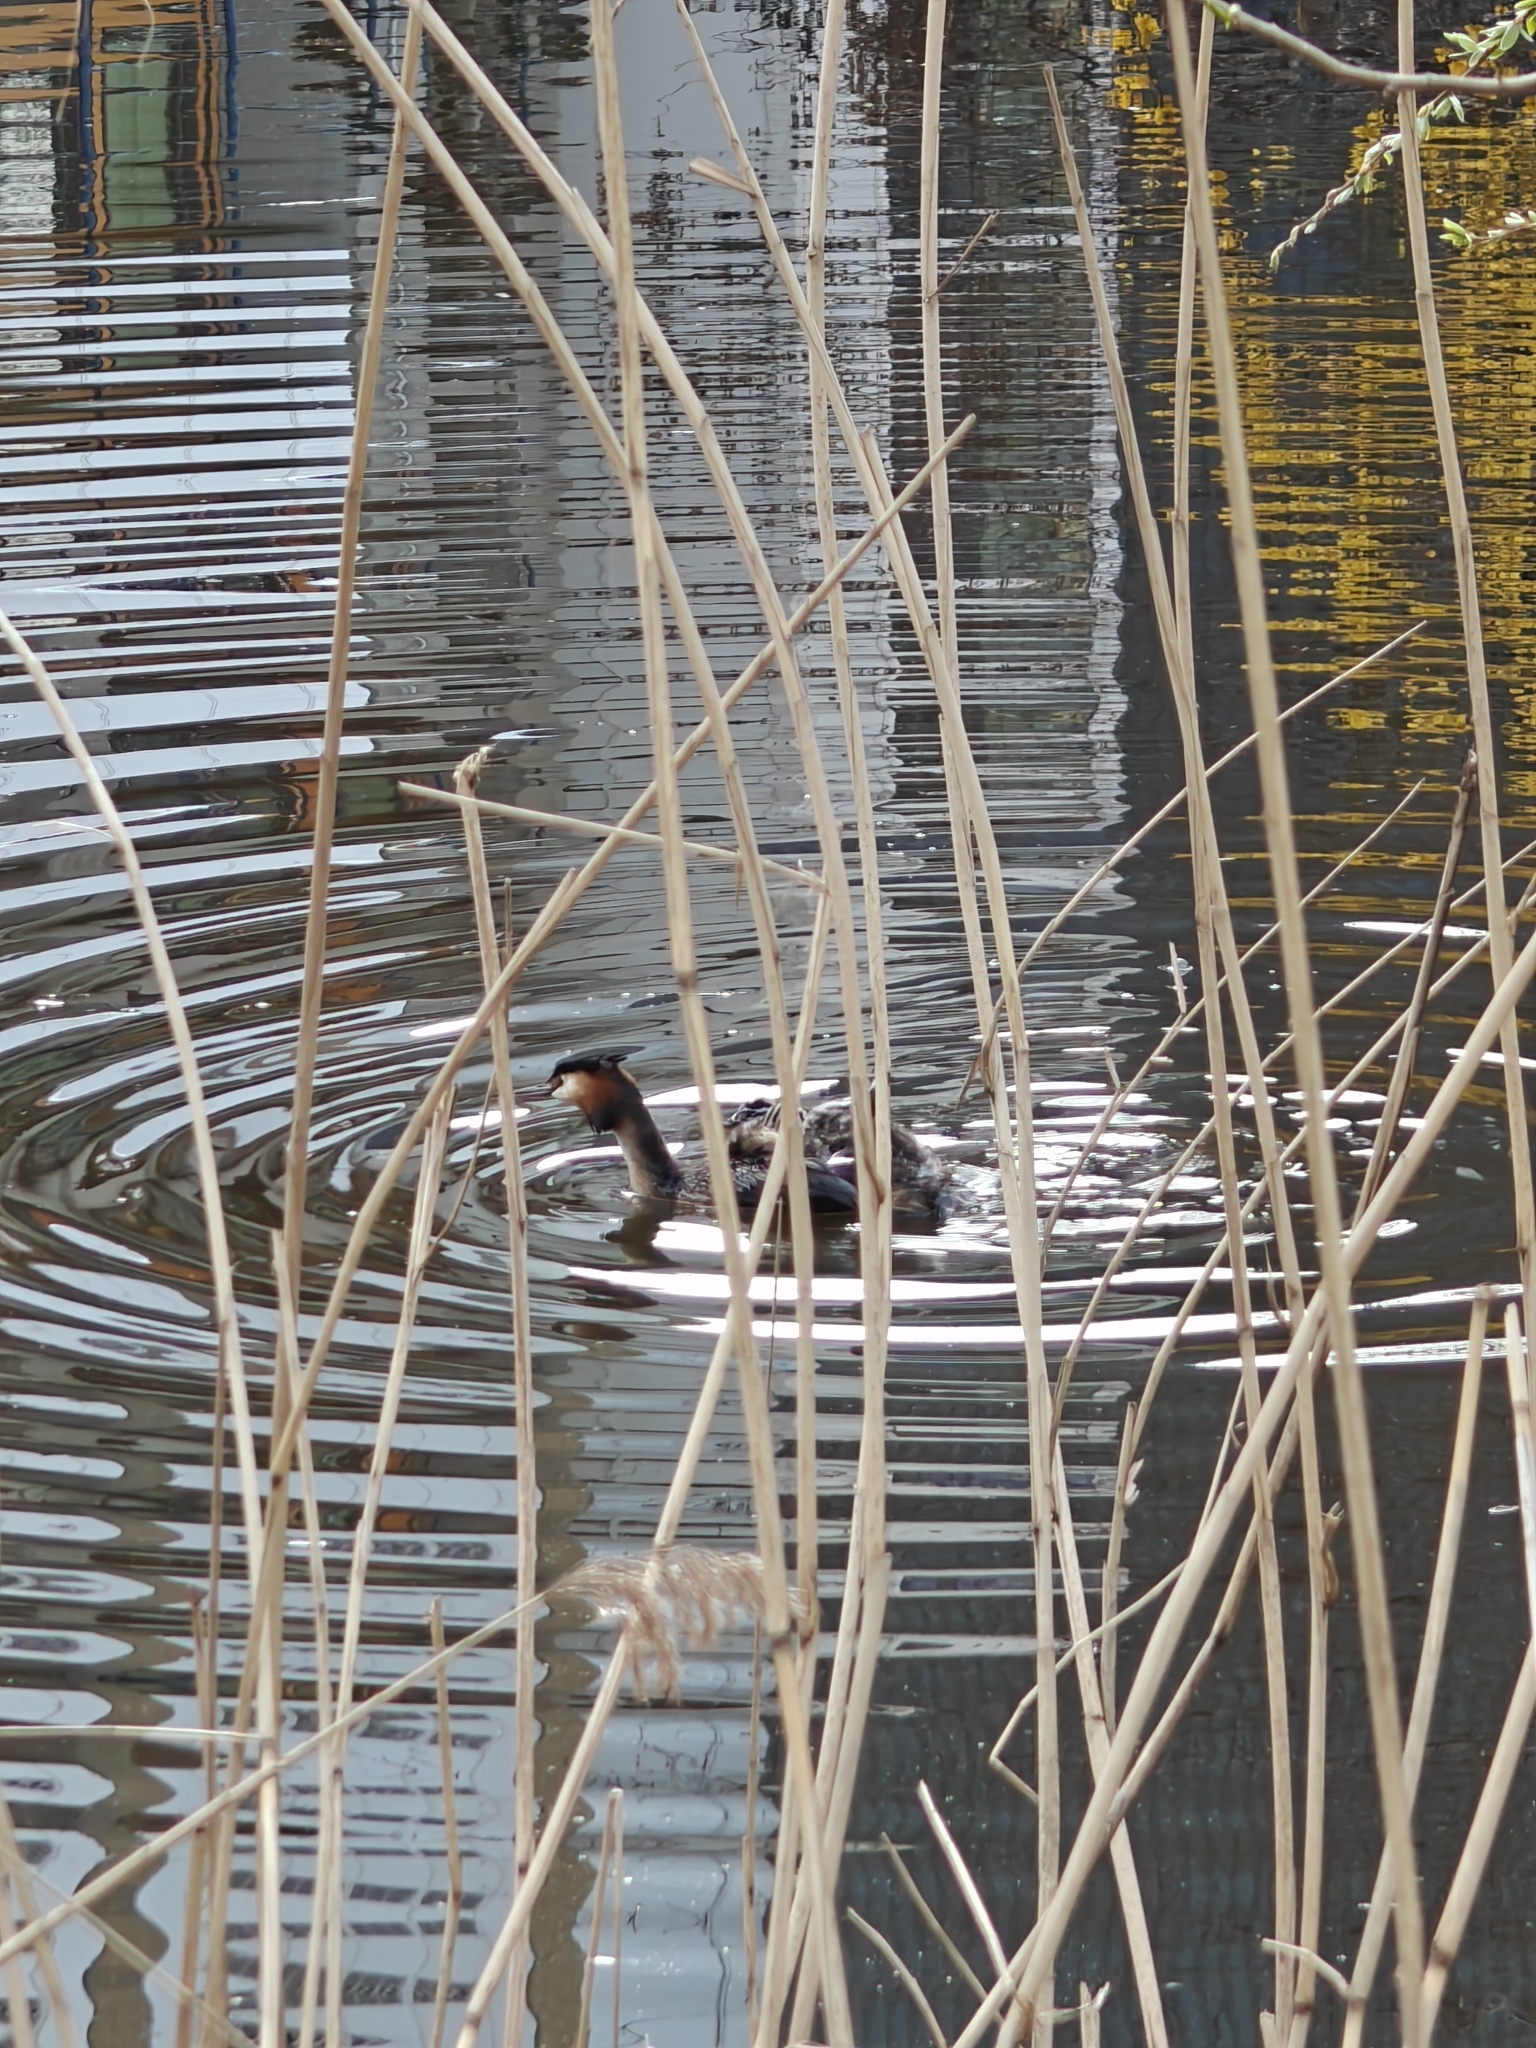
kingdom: Animalia
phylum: Chordata
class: Aves
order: Podicipediformes
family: Podicipedidae
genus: Podiceps
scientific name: Podiceps cristatus
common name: Great crested grebe
